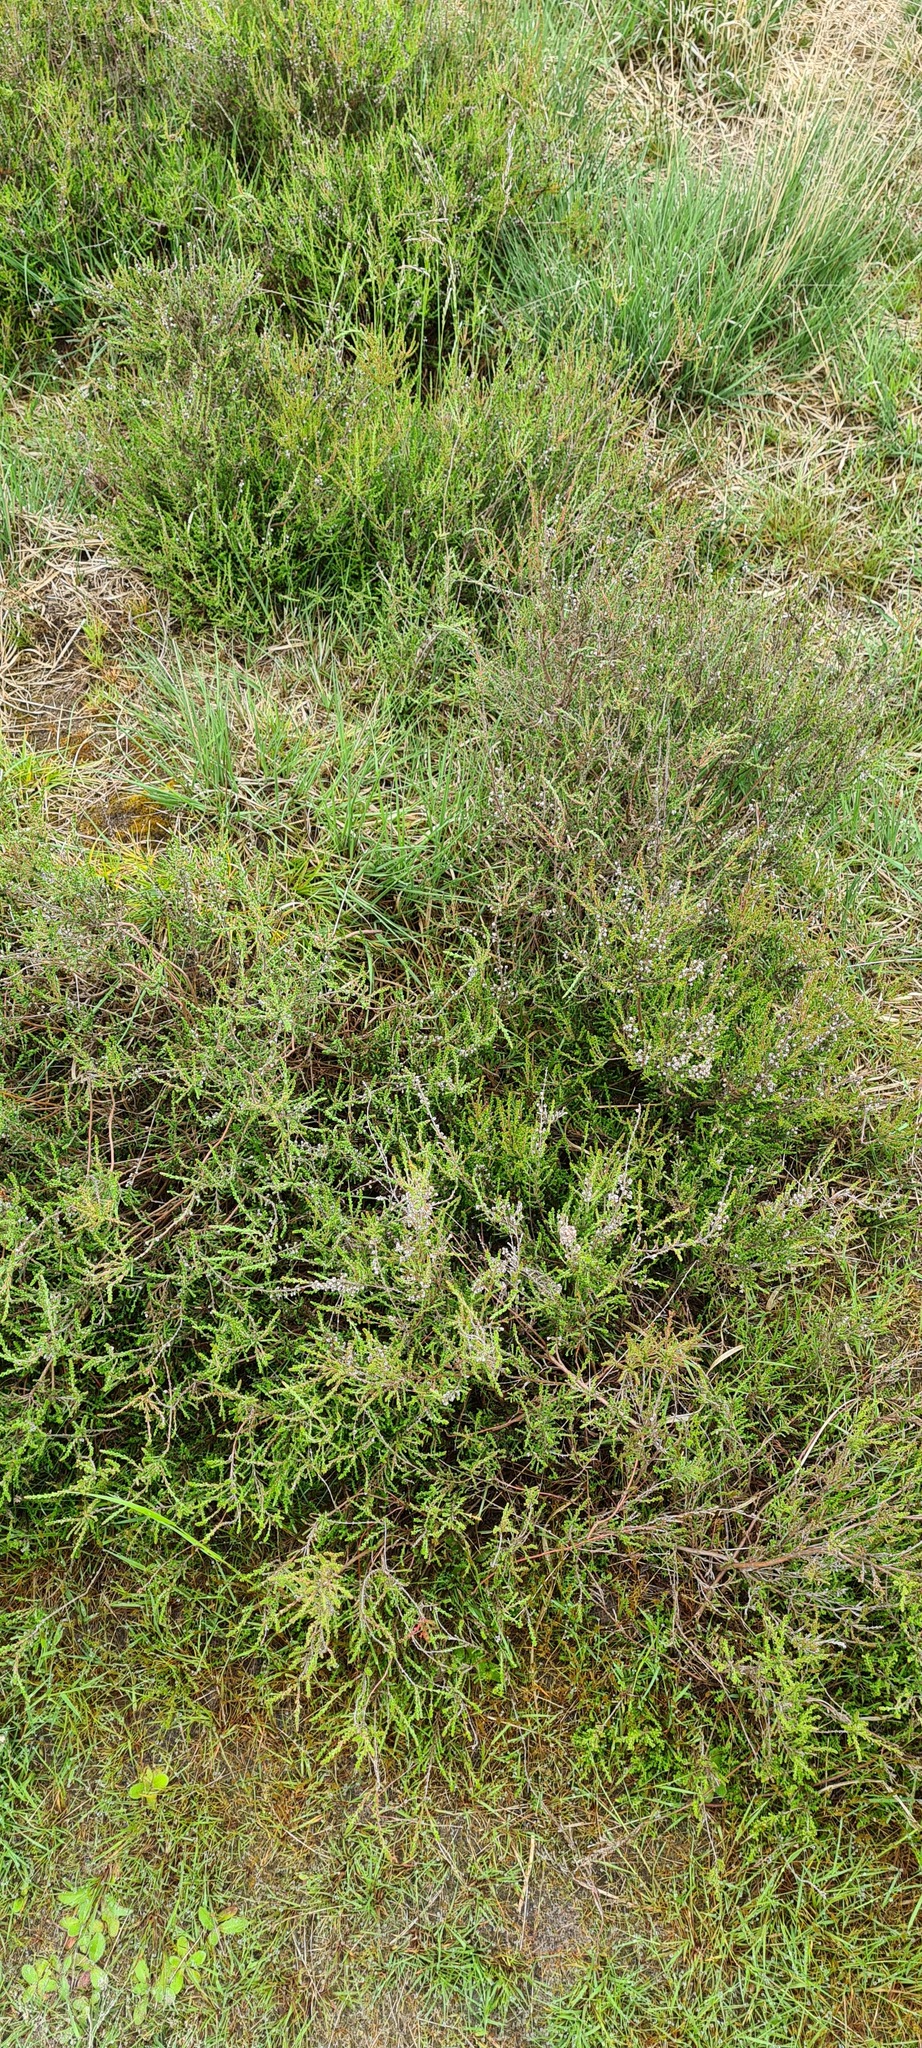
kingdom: Plantae
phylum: Tracheophyta
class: Magnoliopsida
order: Ericales
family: Ericaceae
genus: Calluna
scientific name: Calluna vulgaris
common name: Heather
